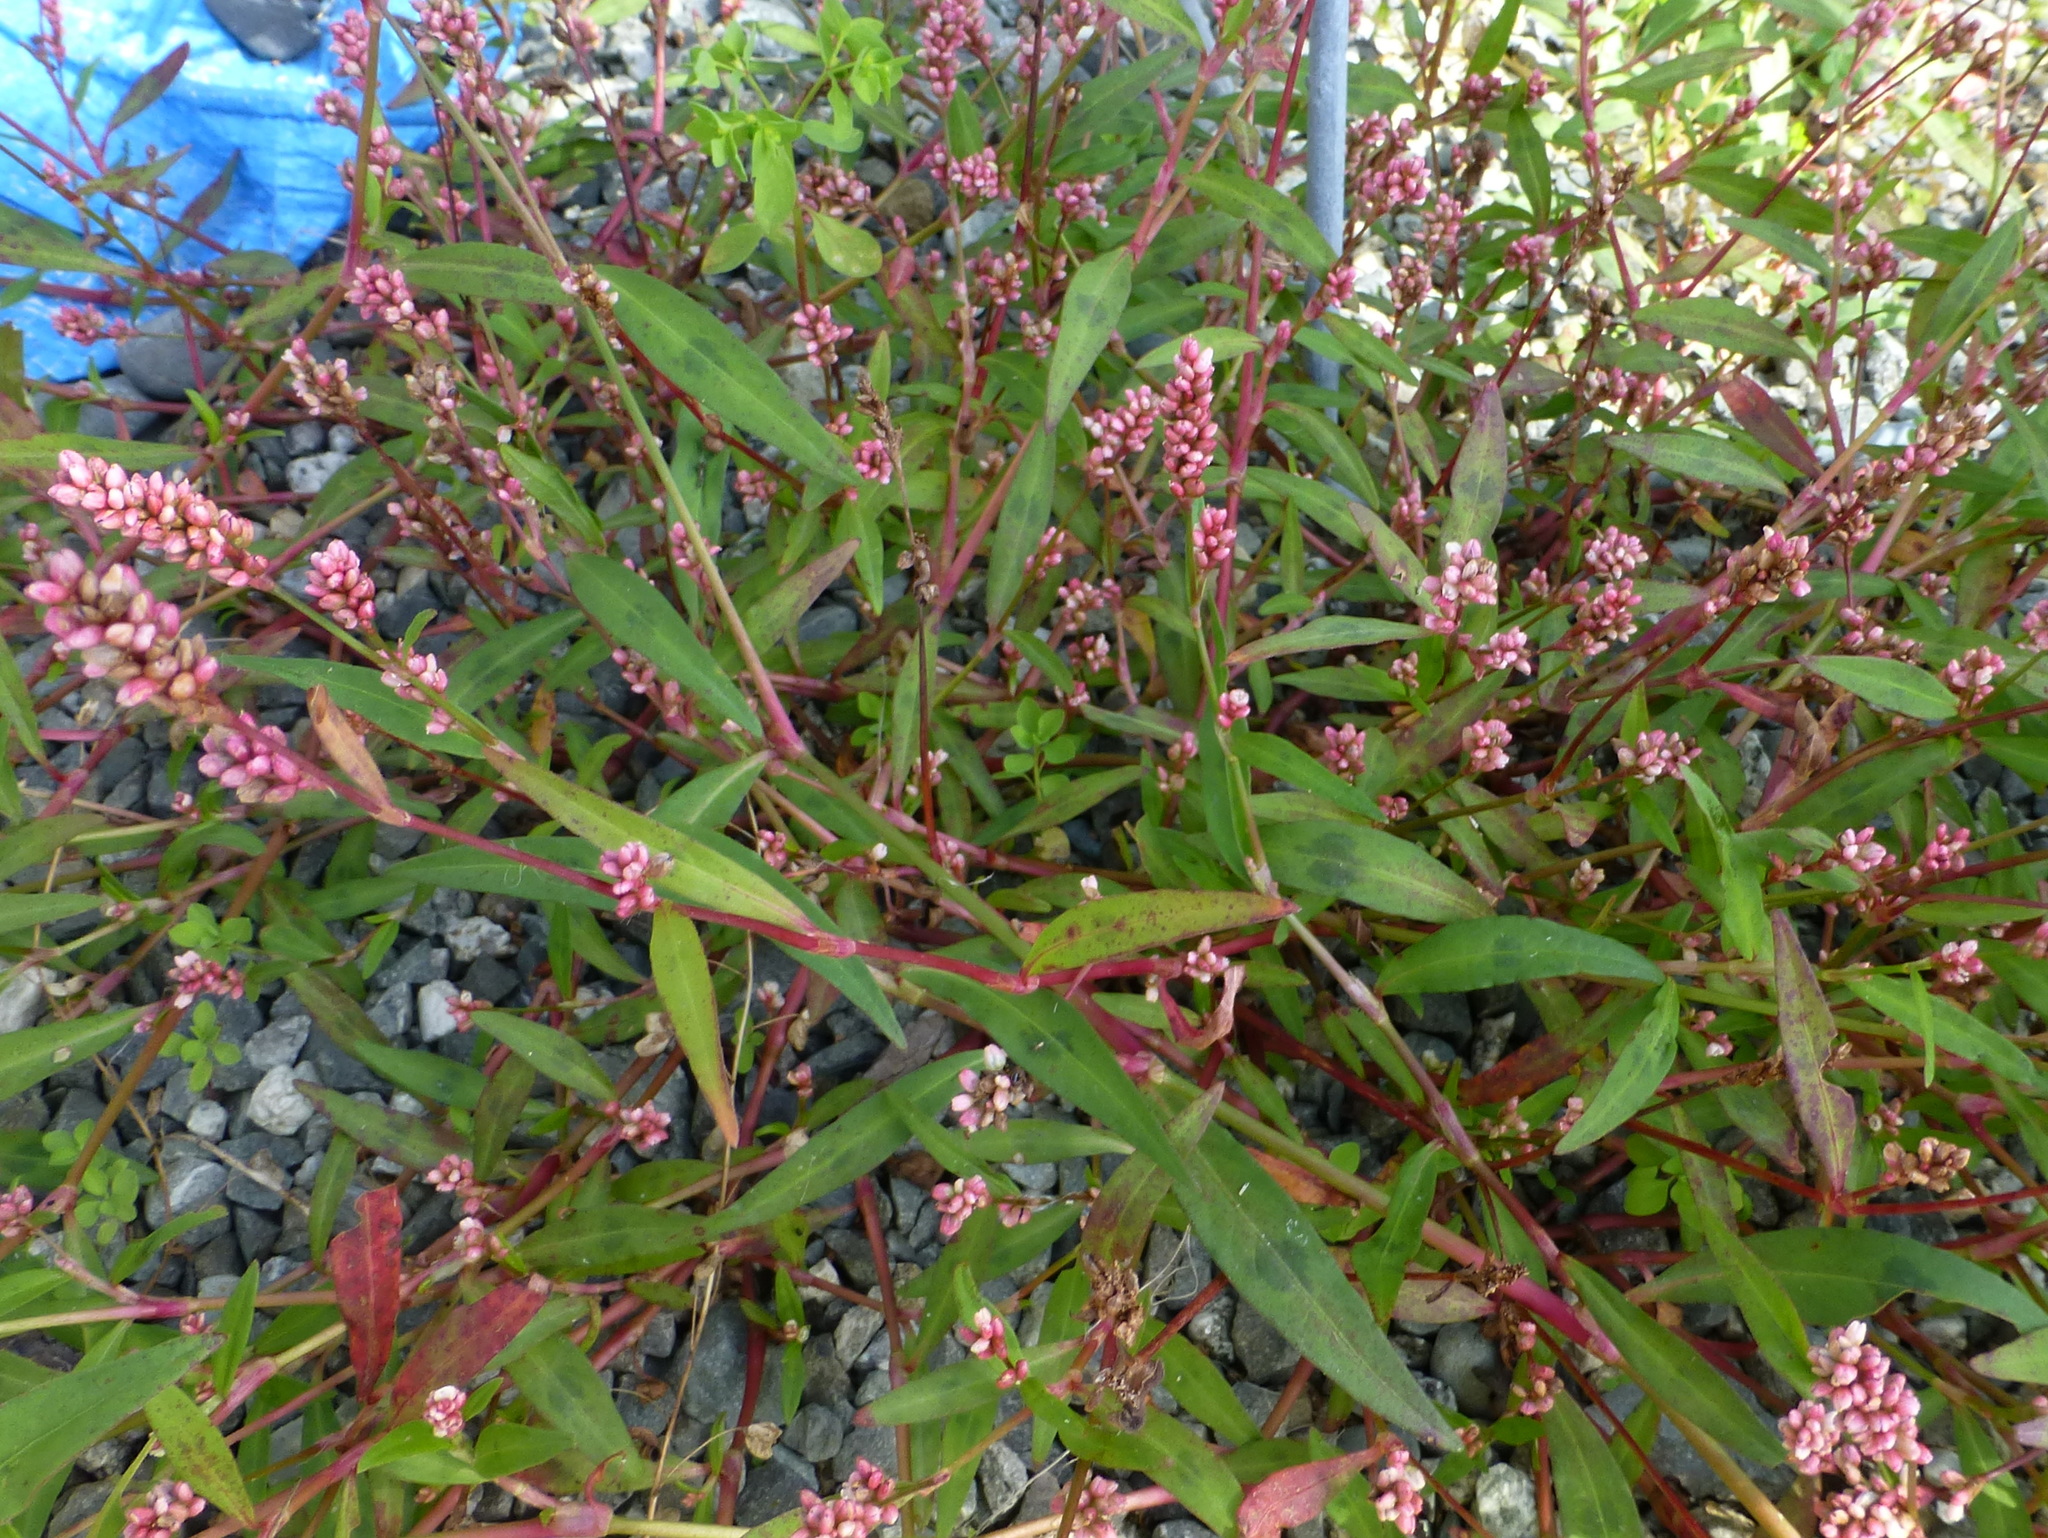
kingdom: Plantae
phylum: Tracheophyta
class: Magnoliopsida
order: Caryophyllales
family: Polygonaceae
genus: Persicaria
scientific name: Persicaria maculosa
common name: Redshank
